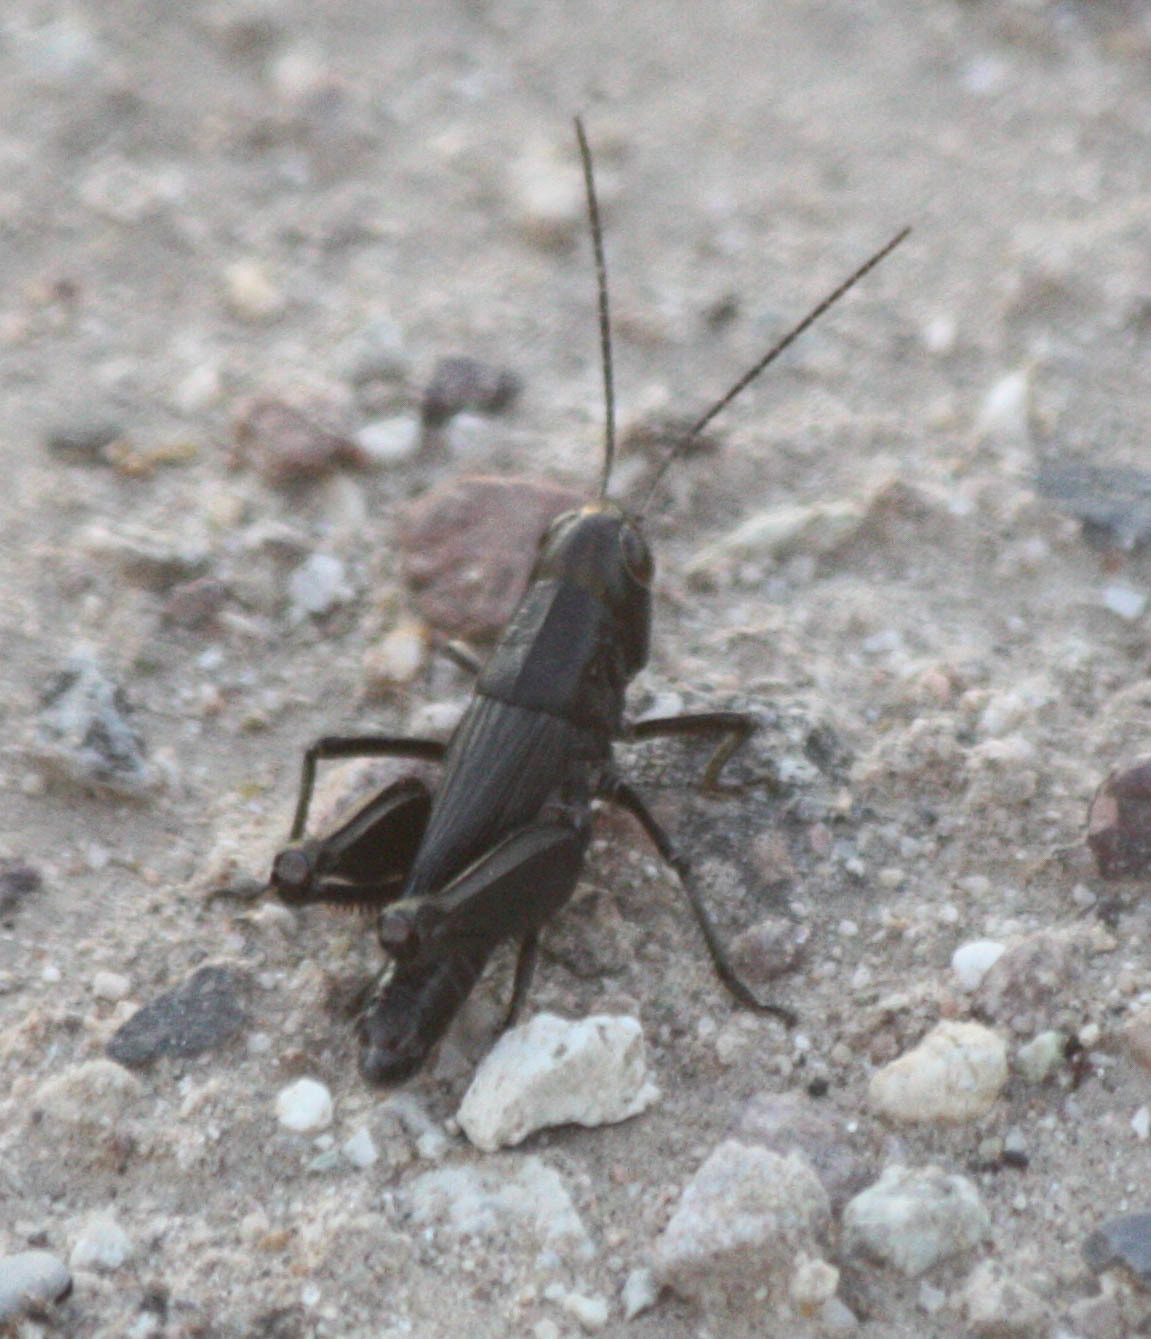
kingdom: Animalia
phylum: Arthropoda
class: Insecta
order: Orthoptera
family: Acrididae
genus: Boopedon
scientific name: Boopedon nubilum
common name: Ebony grasshopper
